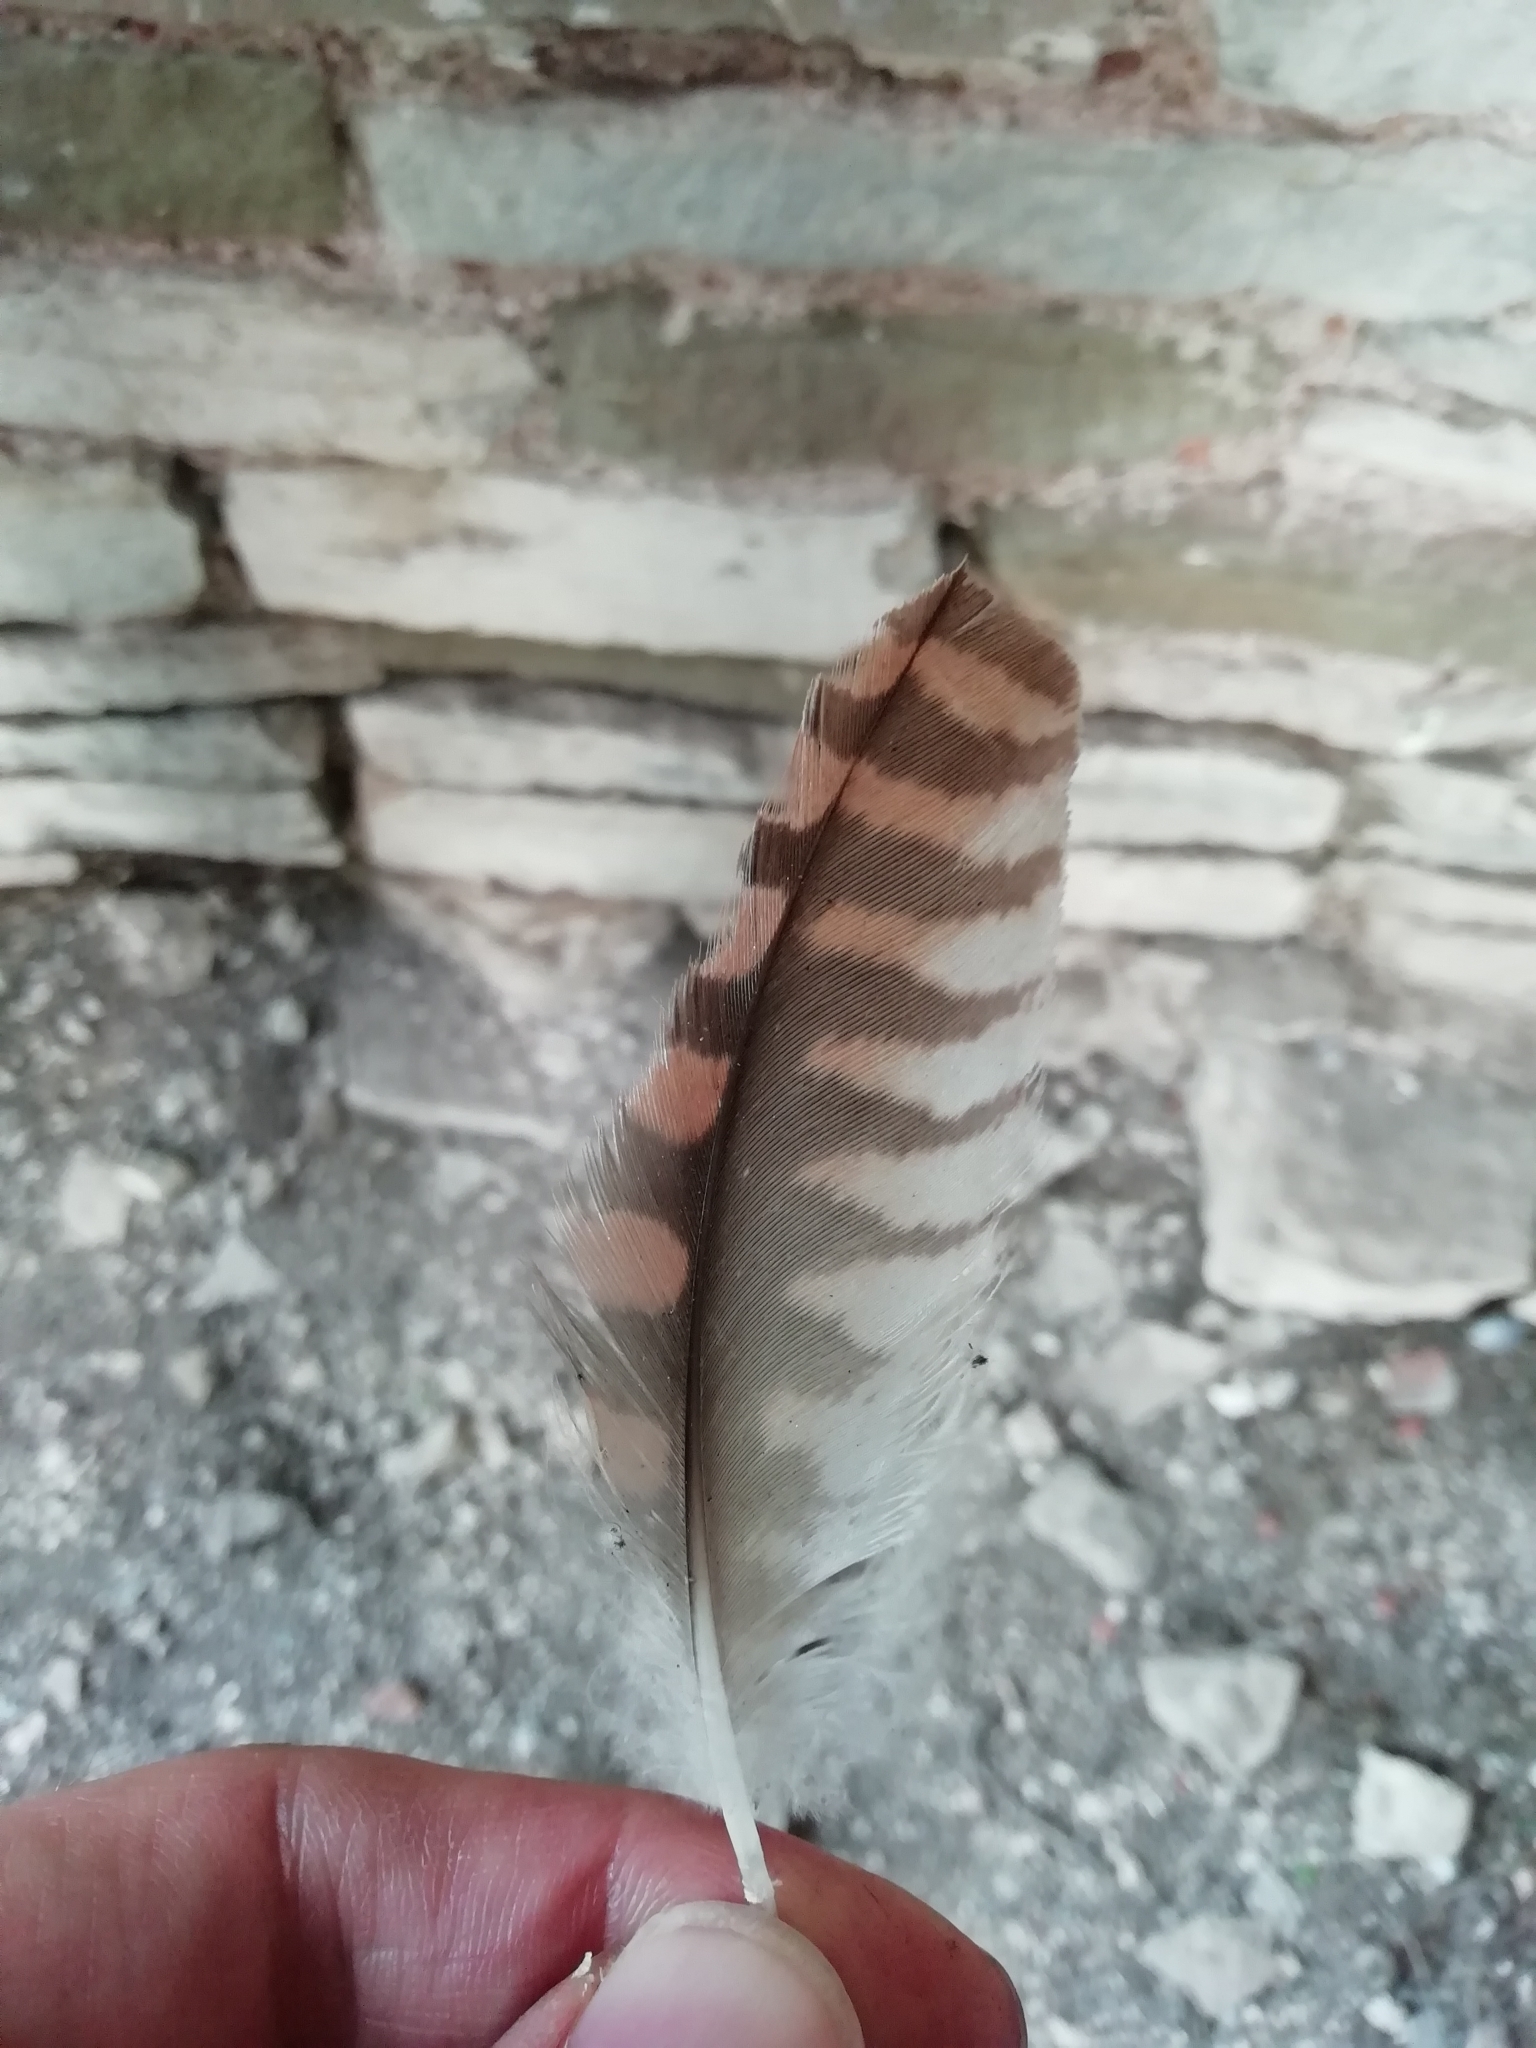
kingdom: Animalia
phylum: Chordata
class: Aves
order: Falconiformes
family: Falconidae
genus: Falco
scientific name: Falco tinnunculus
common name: Common kestrel
